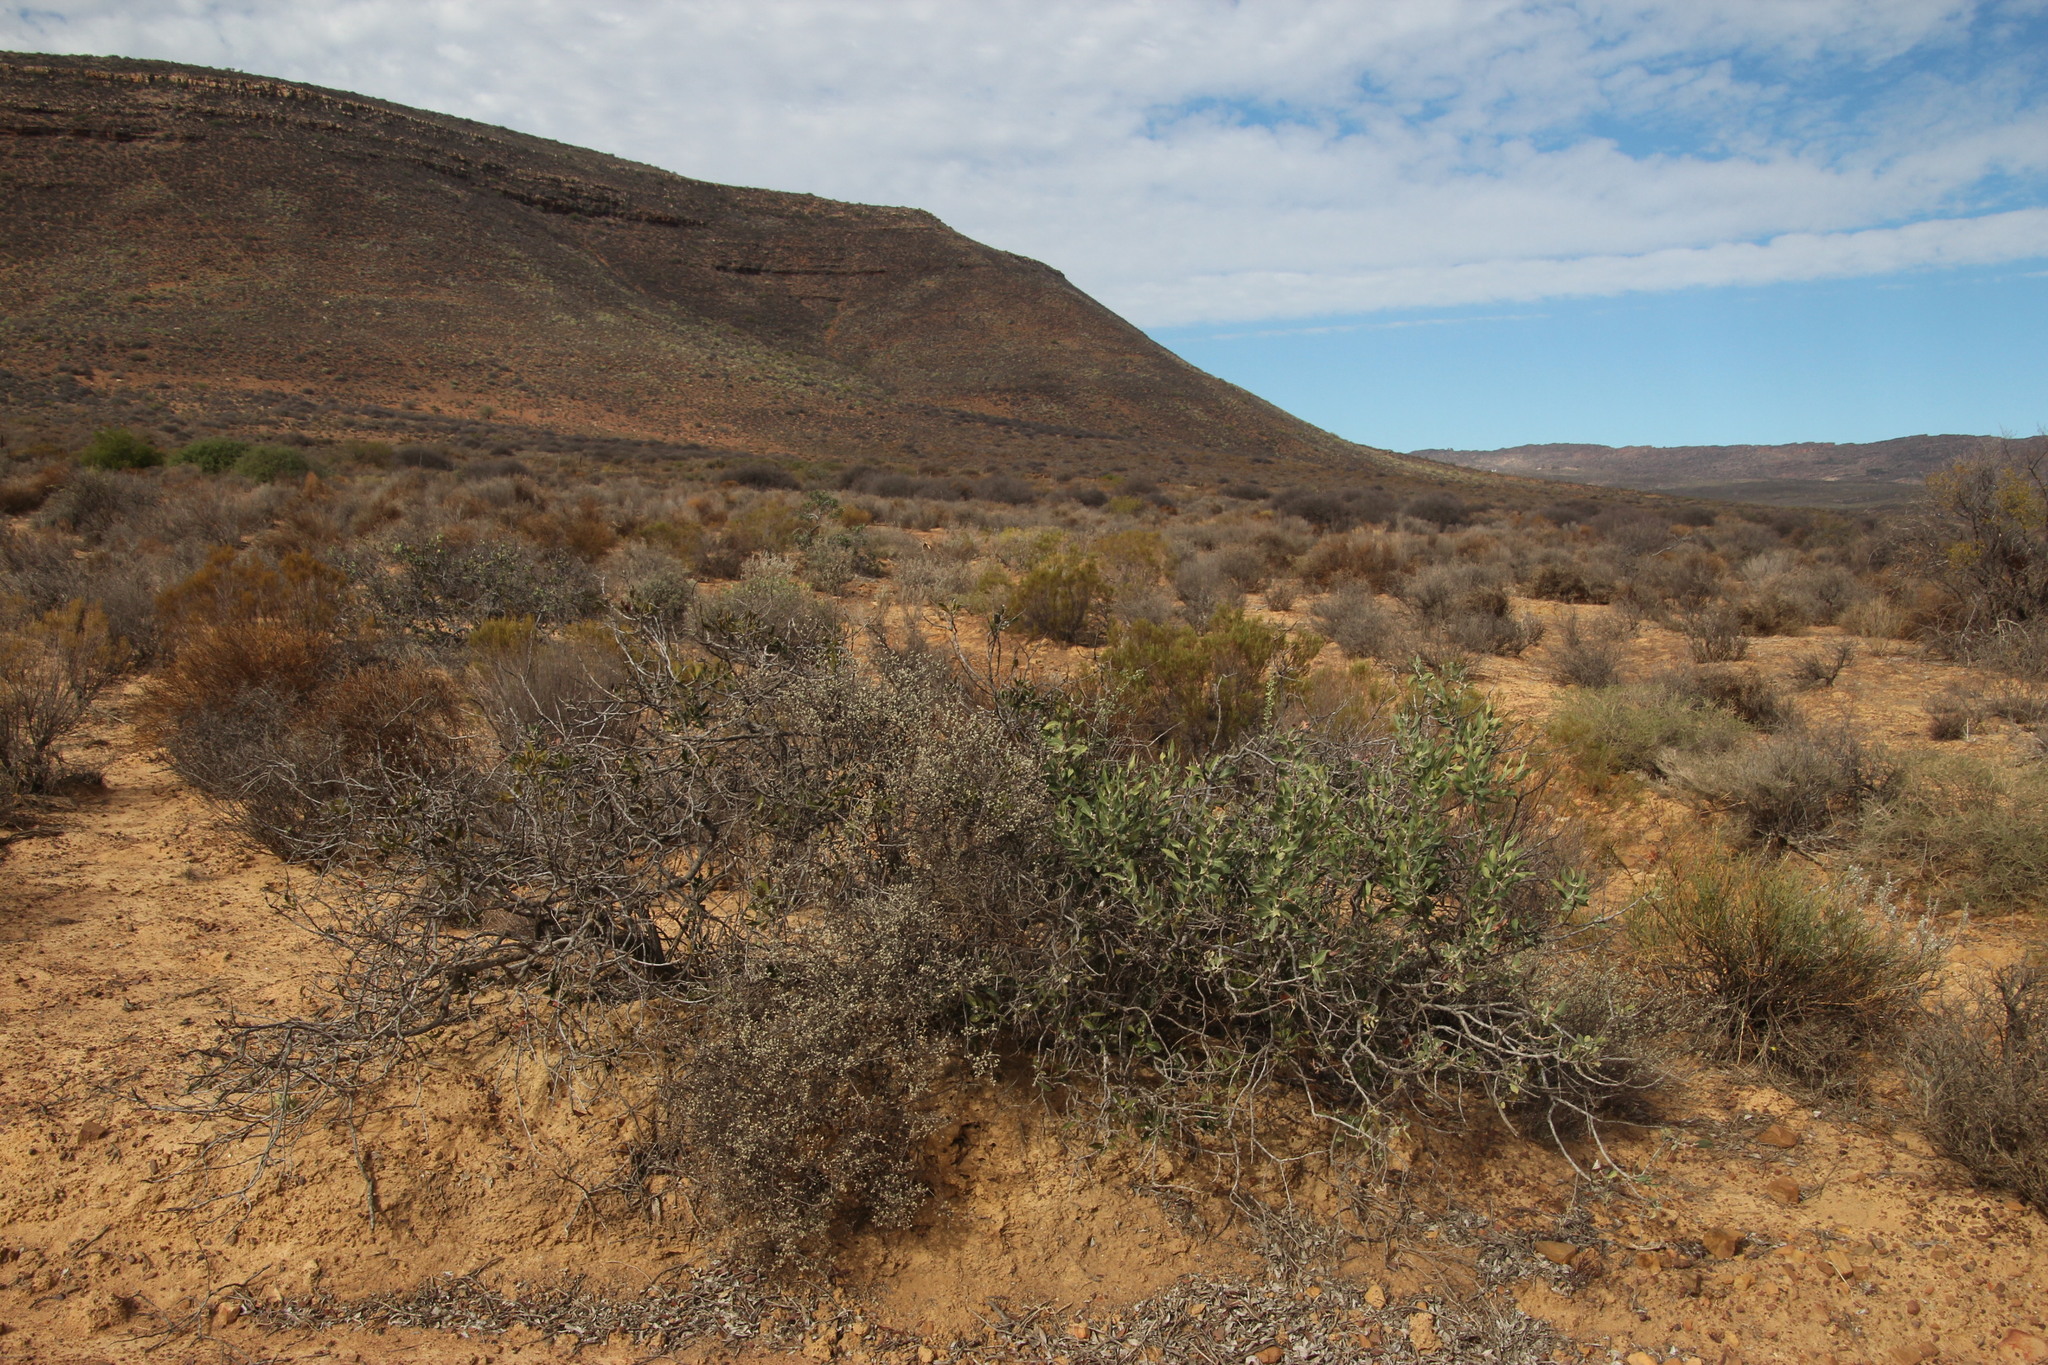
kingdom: Plantae
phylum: Tracheophyta
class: Magnoliopsida
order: Ericales
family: Ebenaceae
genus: Euclea
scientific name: Euclea acutifolia
